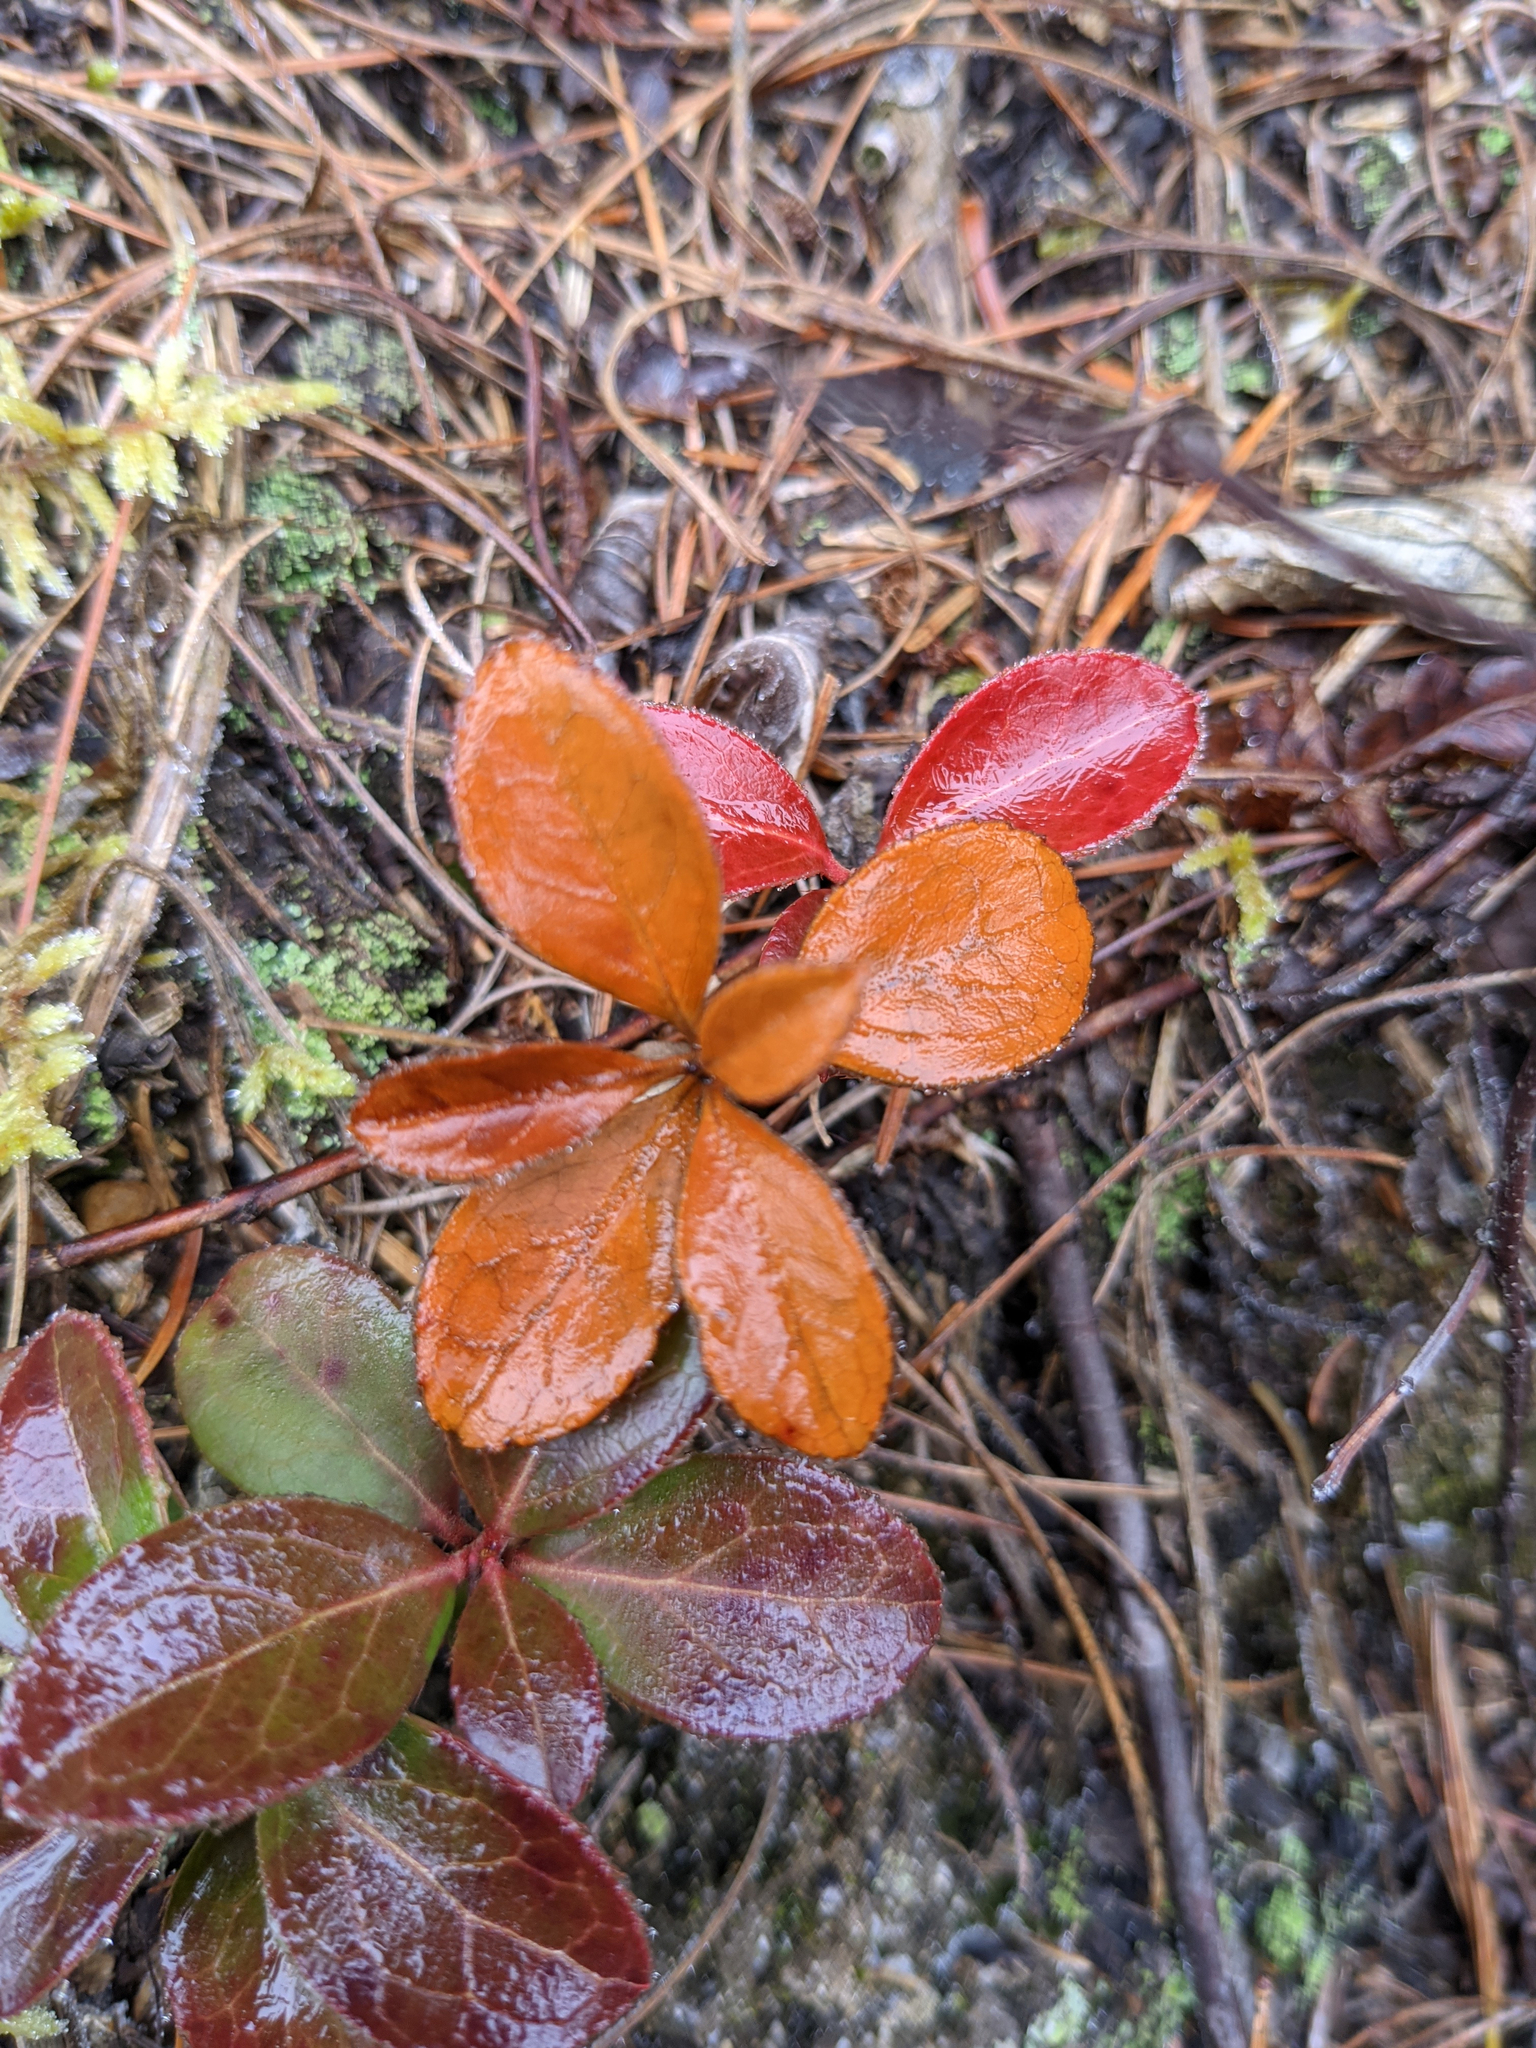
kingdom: Plantae
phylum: Tracheophyta
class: Magnoliopsida
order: Ericales
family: Ericaceae
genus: Gaultheria
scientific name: Gaultheria procumbens
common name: Checkerberry
